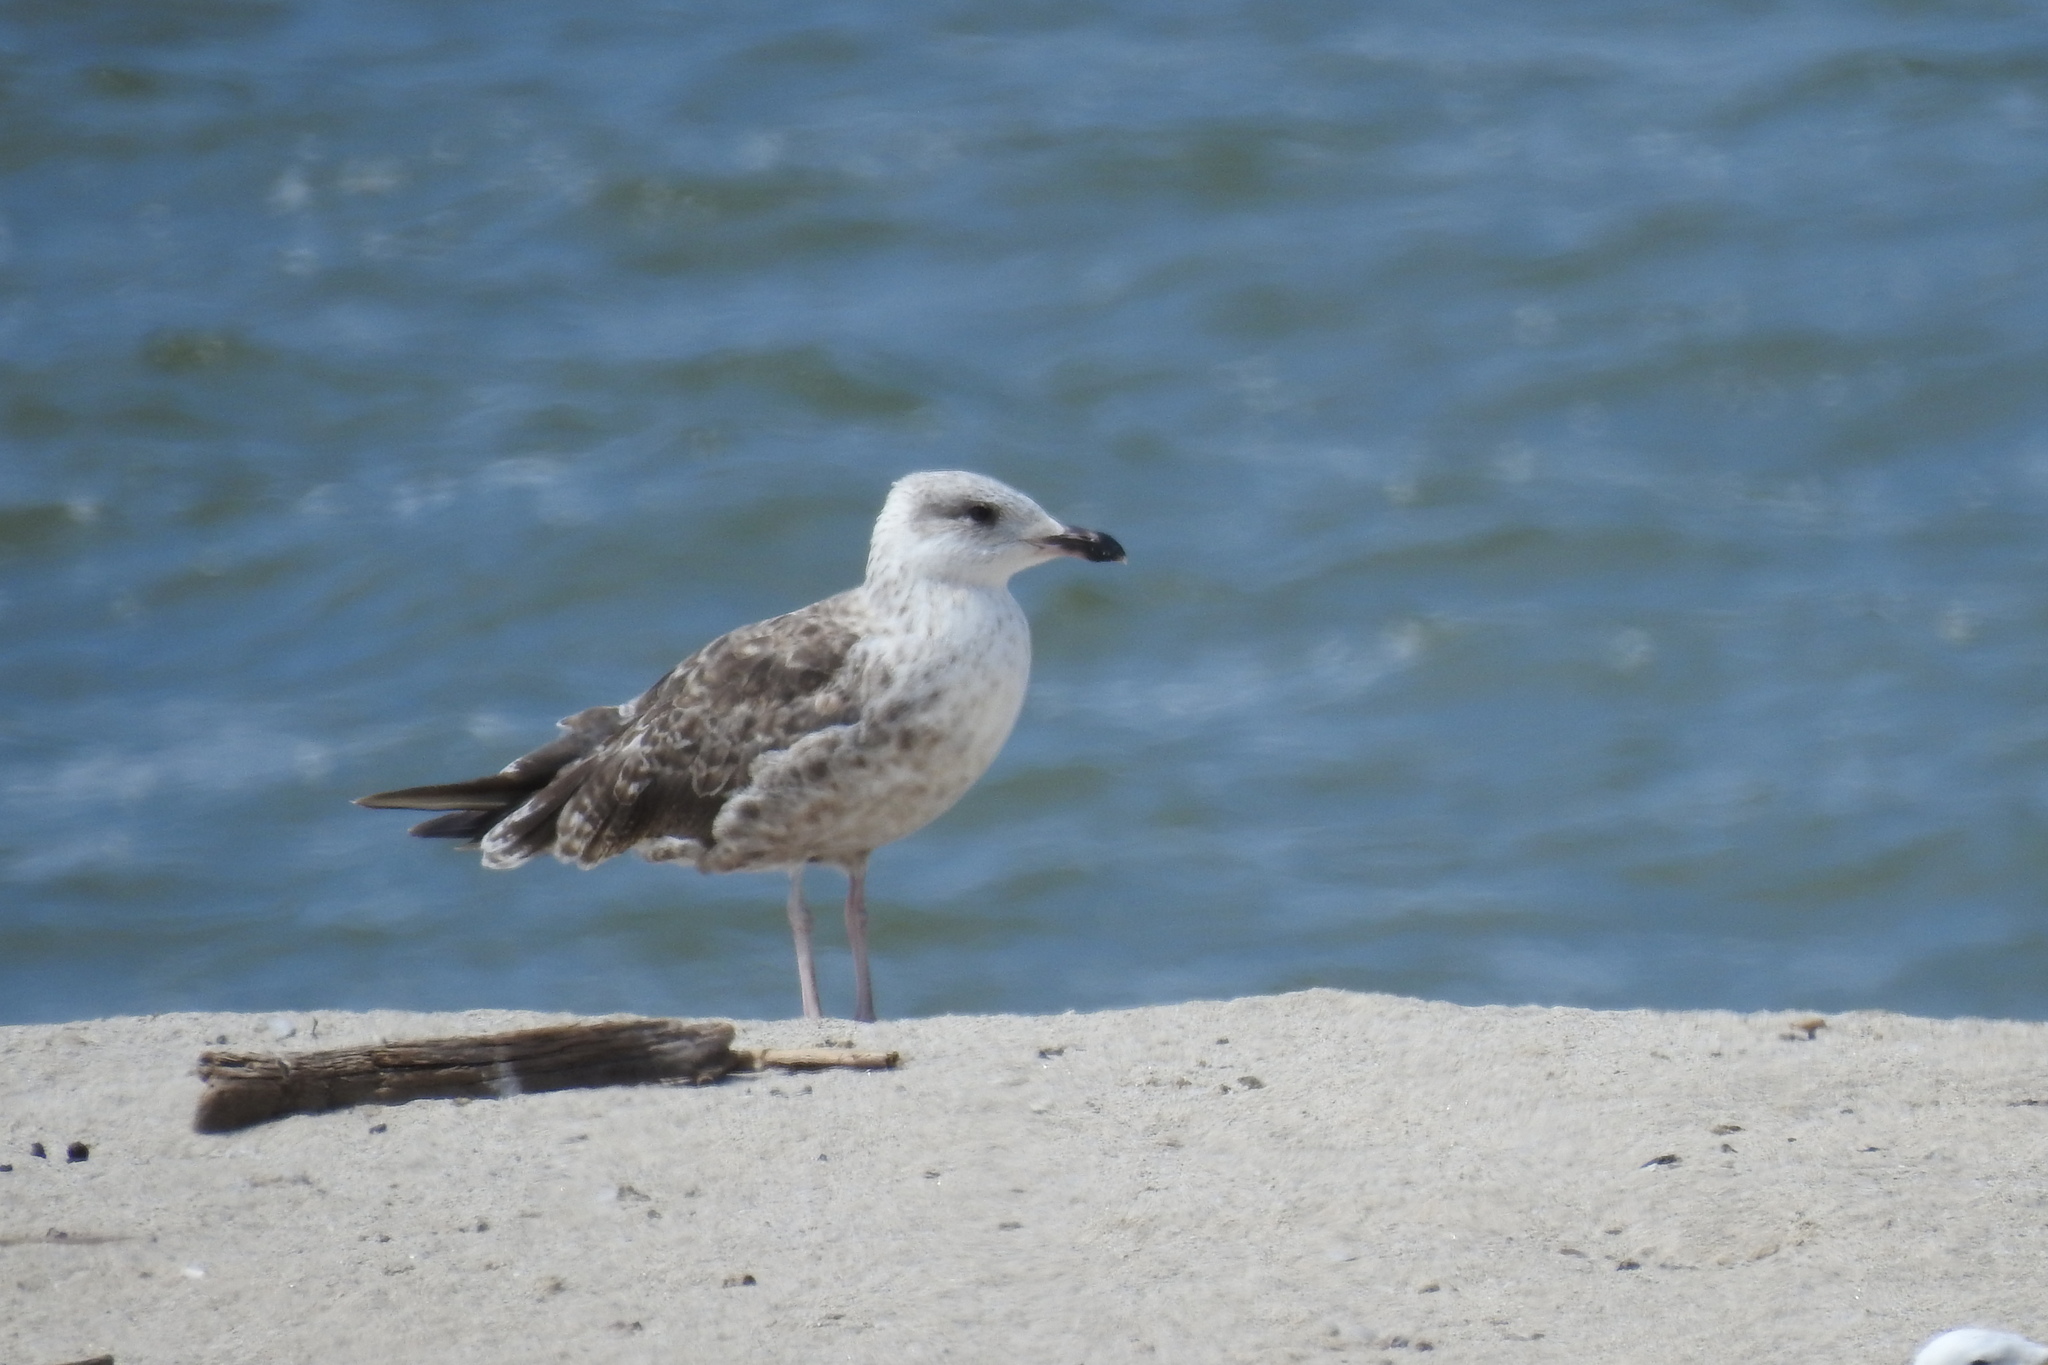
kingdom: Animalia
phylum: Chordata
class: Aves
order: Charadriiformes
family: Laridae
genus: Larus
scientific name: Larus fuscus
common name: Lesser black-backed gull
